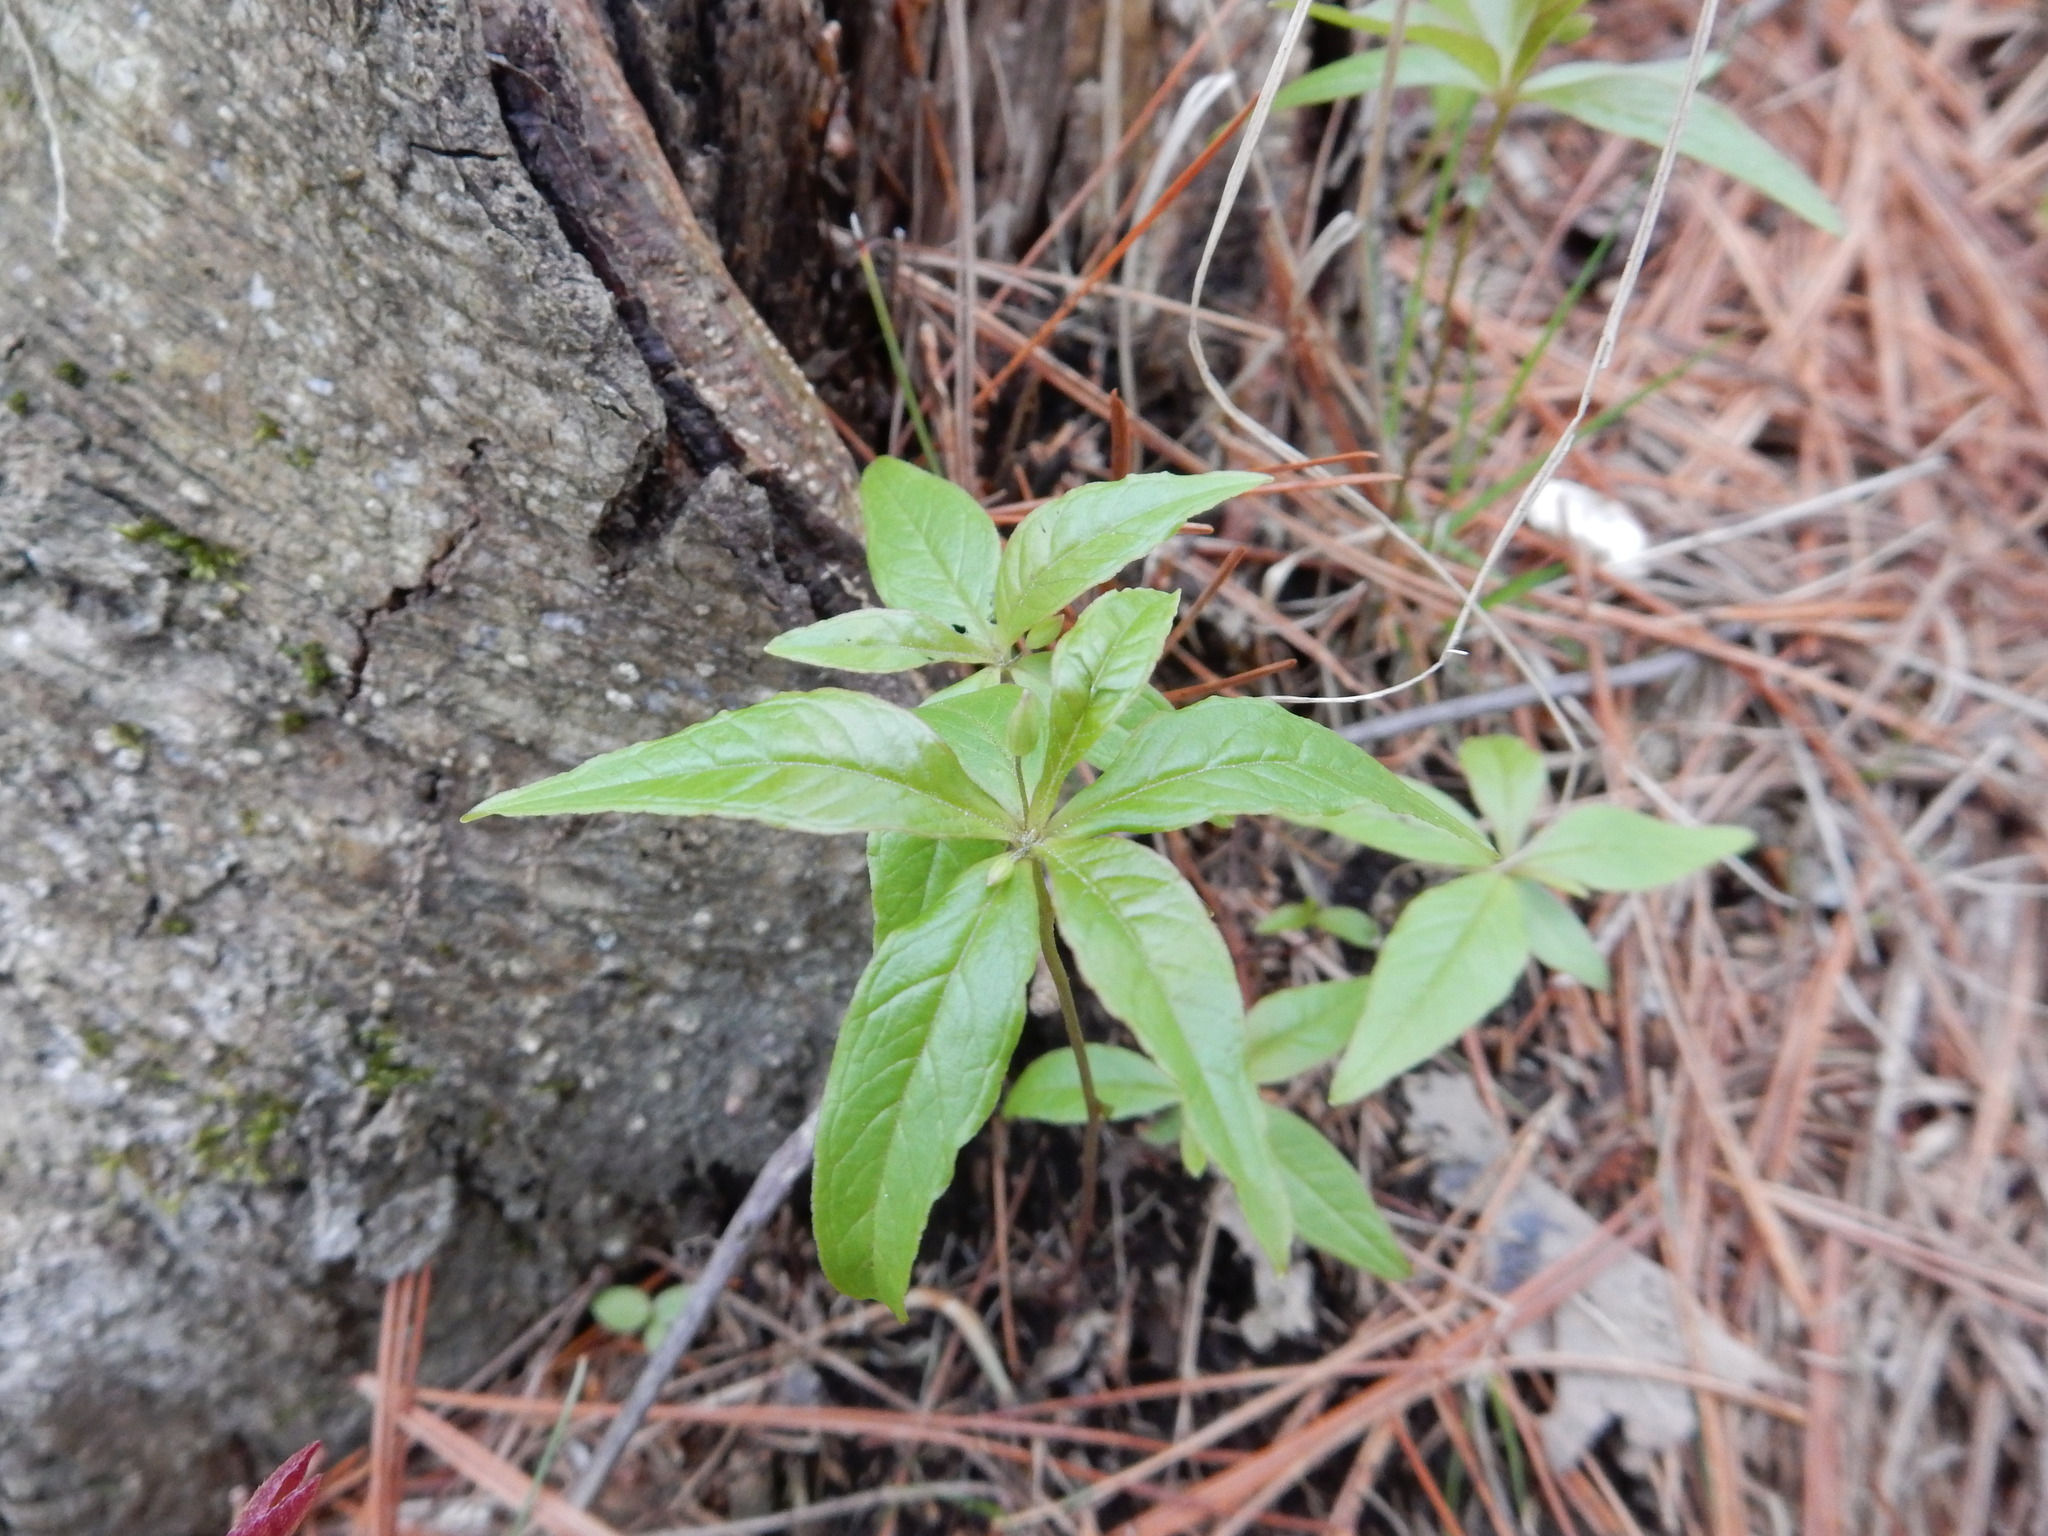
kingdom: Plantae
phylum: Tracheophyta
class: Magnoliopsida
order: Ericales
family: Primulaceae
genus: Lysimachia
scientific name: Lysimachia borealis
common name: American starflower
